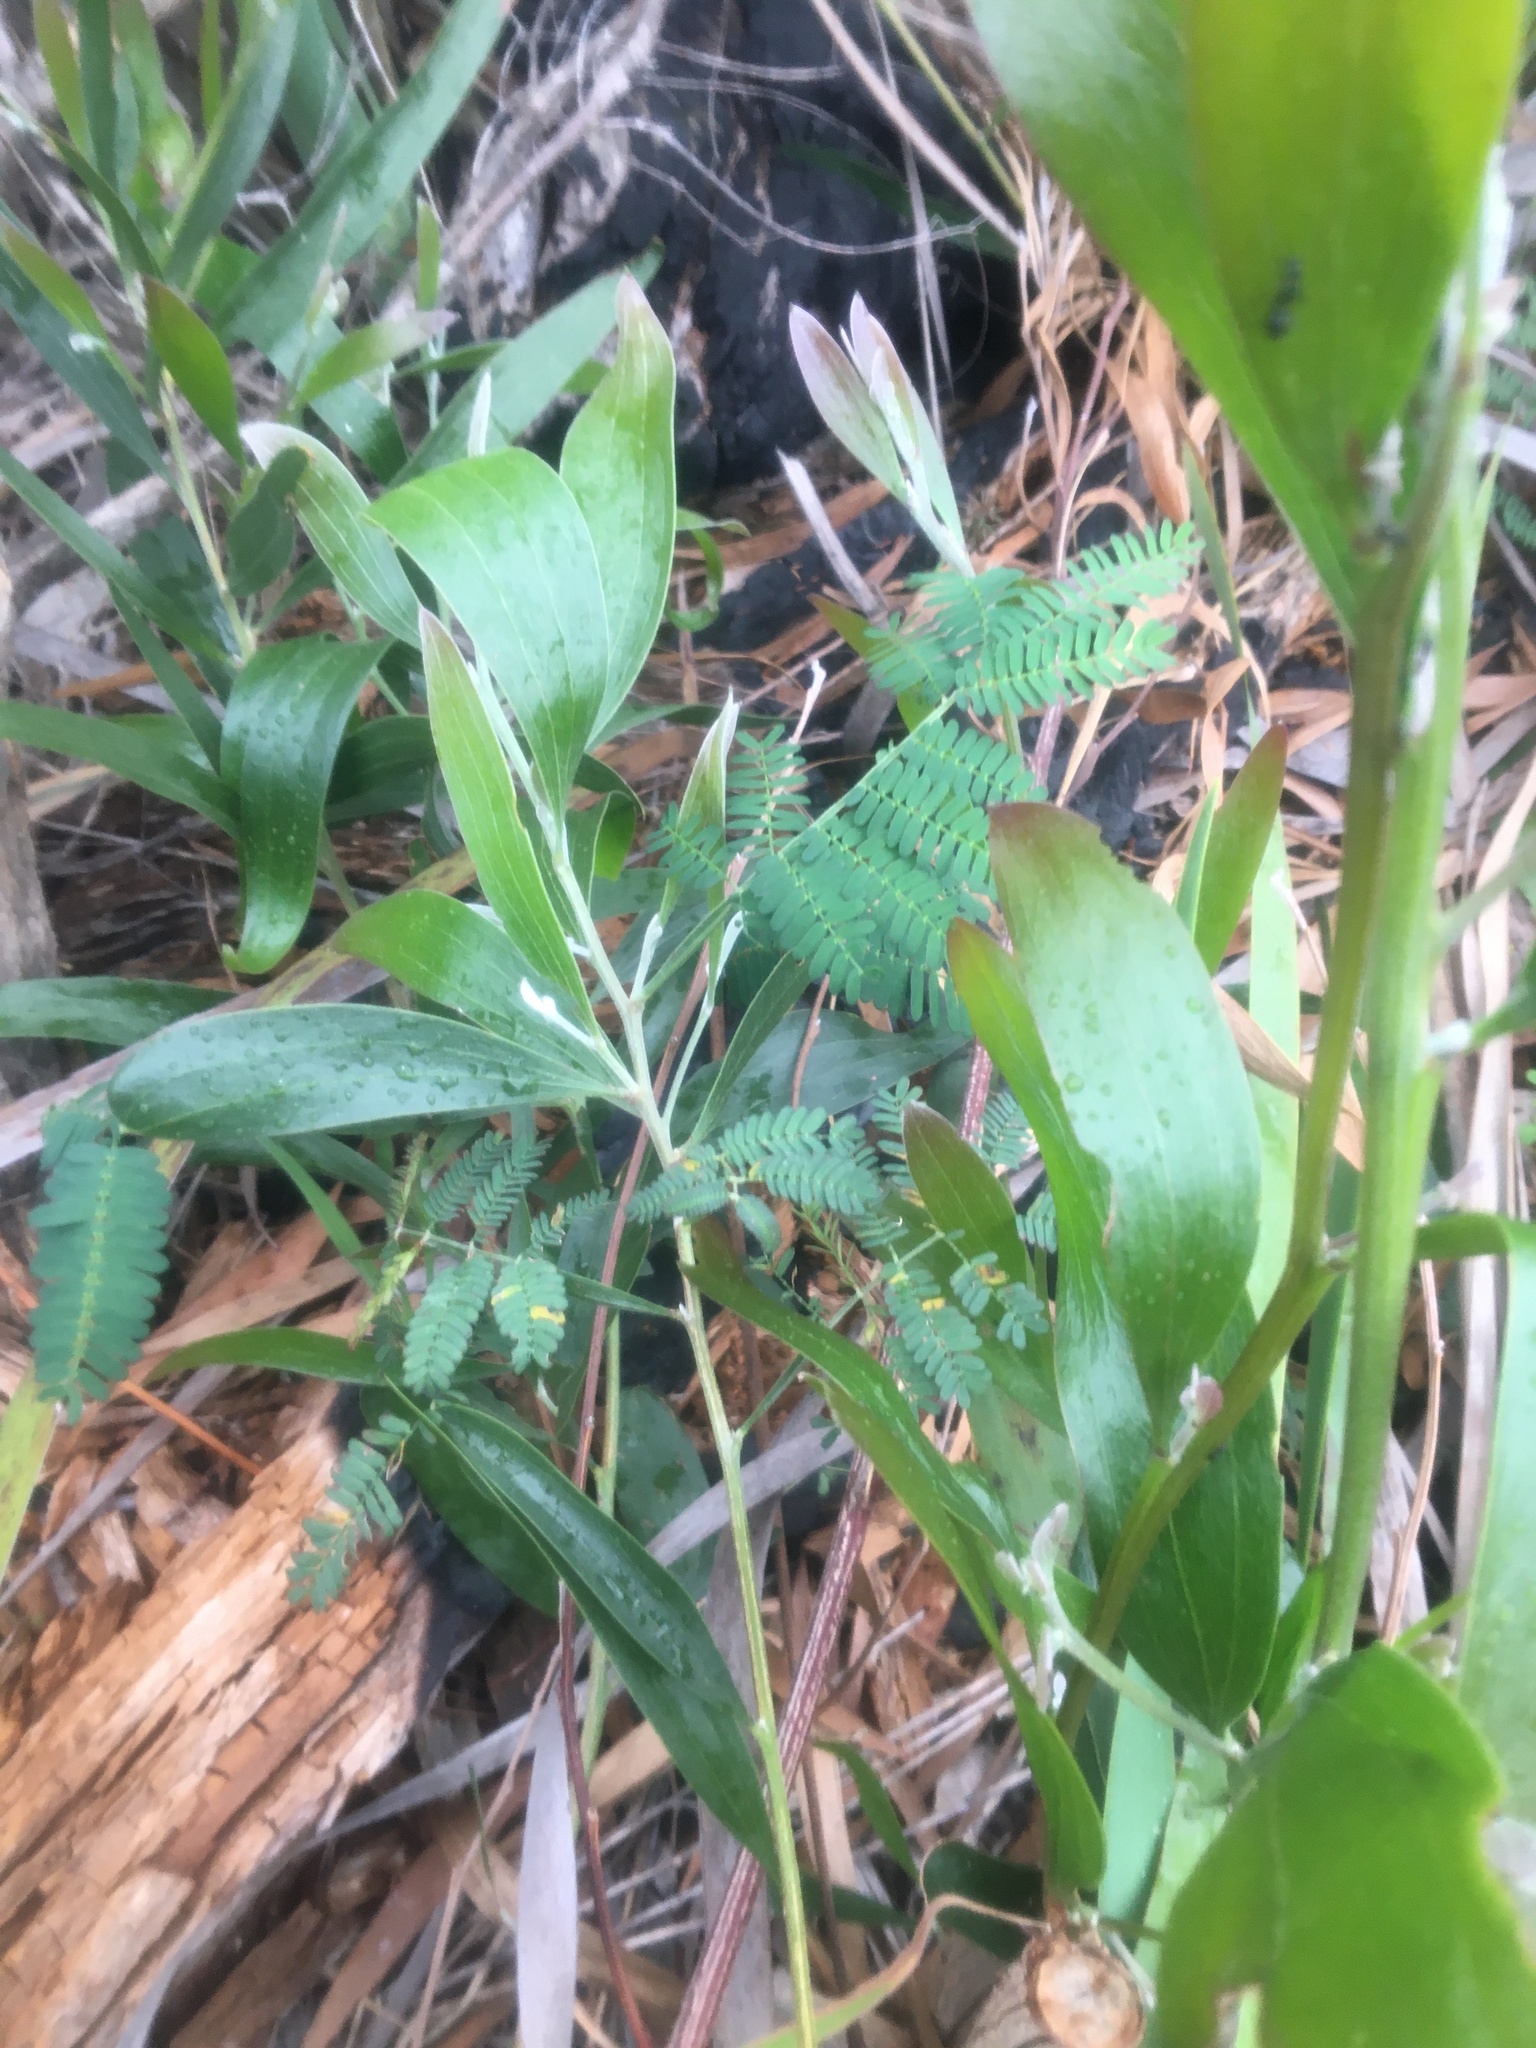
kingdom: Plantae
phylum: Tracheophyta
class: Magnoliopsida
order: Fabales
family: Fabaceae
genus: Acacia
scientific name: Acacia melanoxylon
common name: Blackwood
